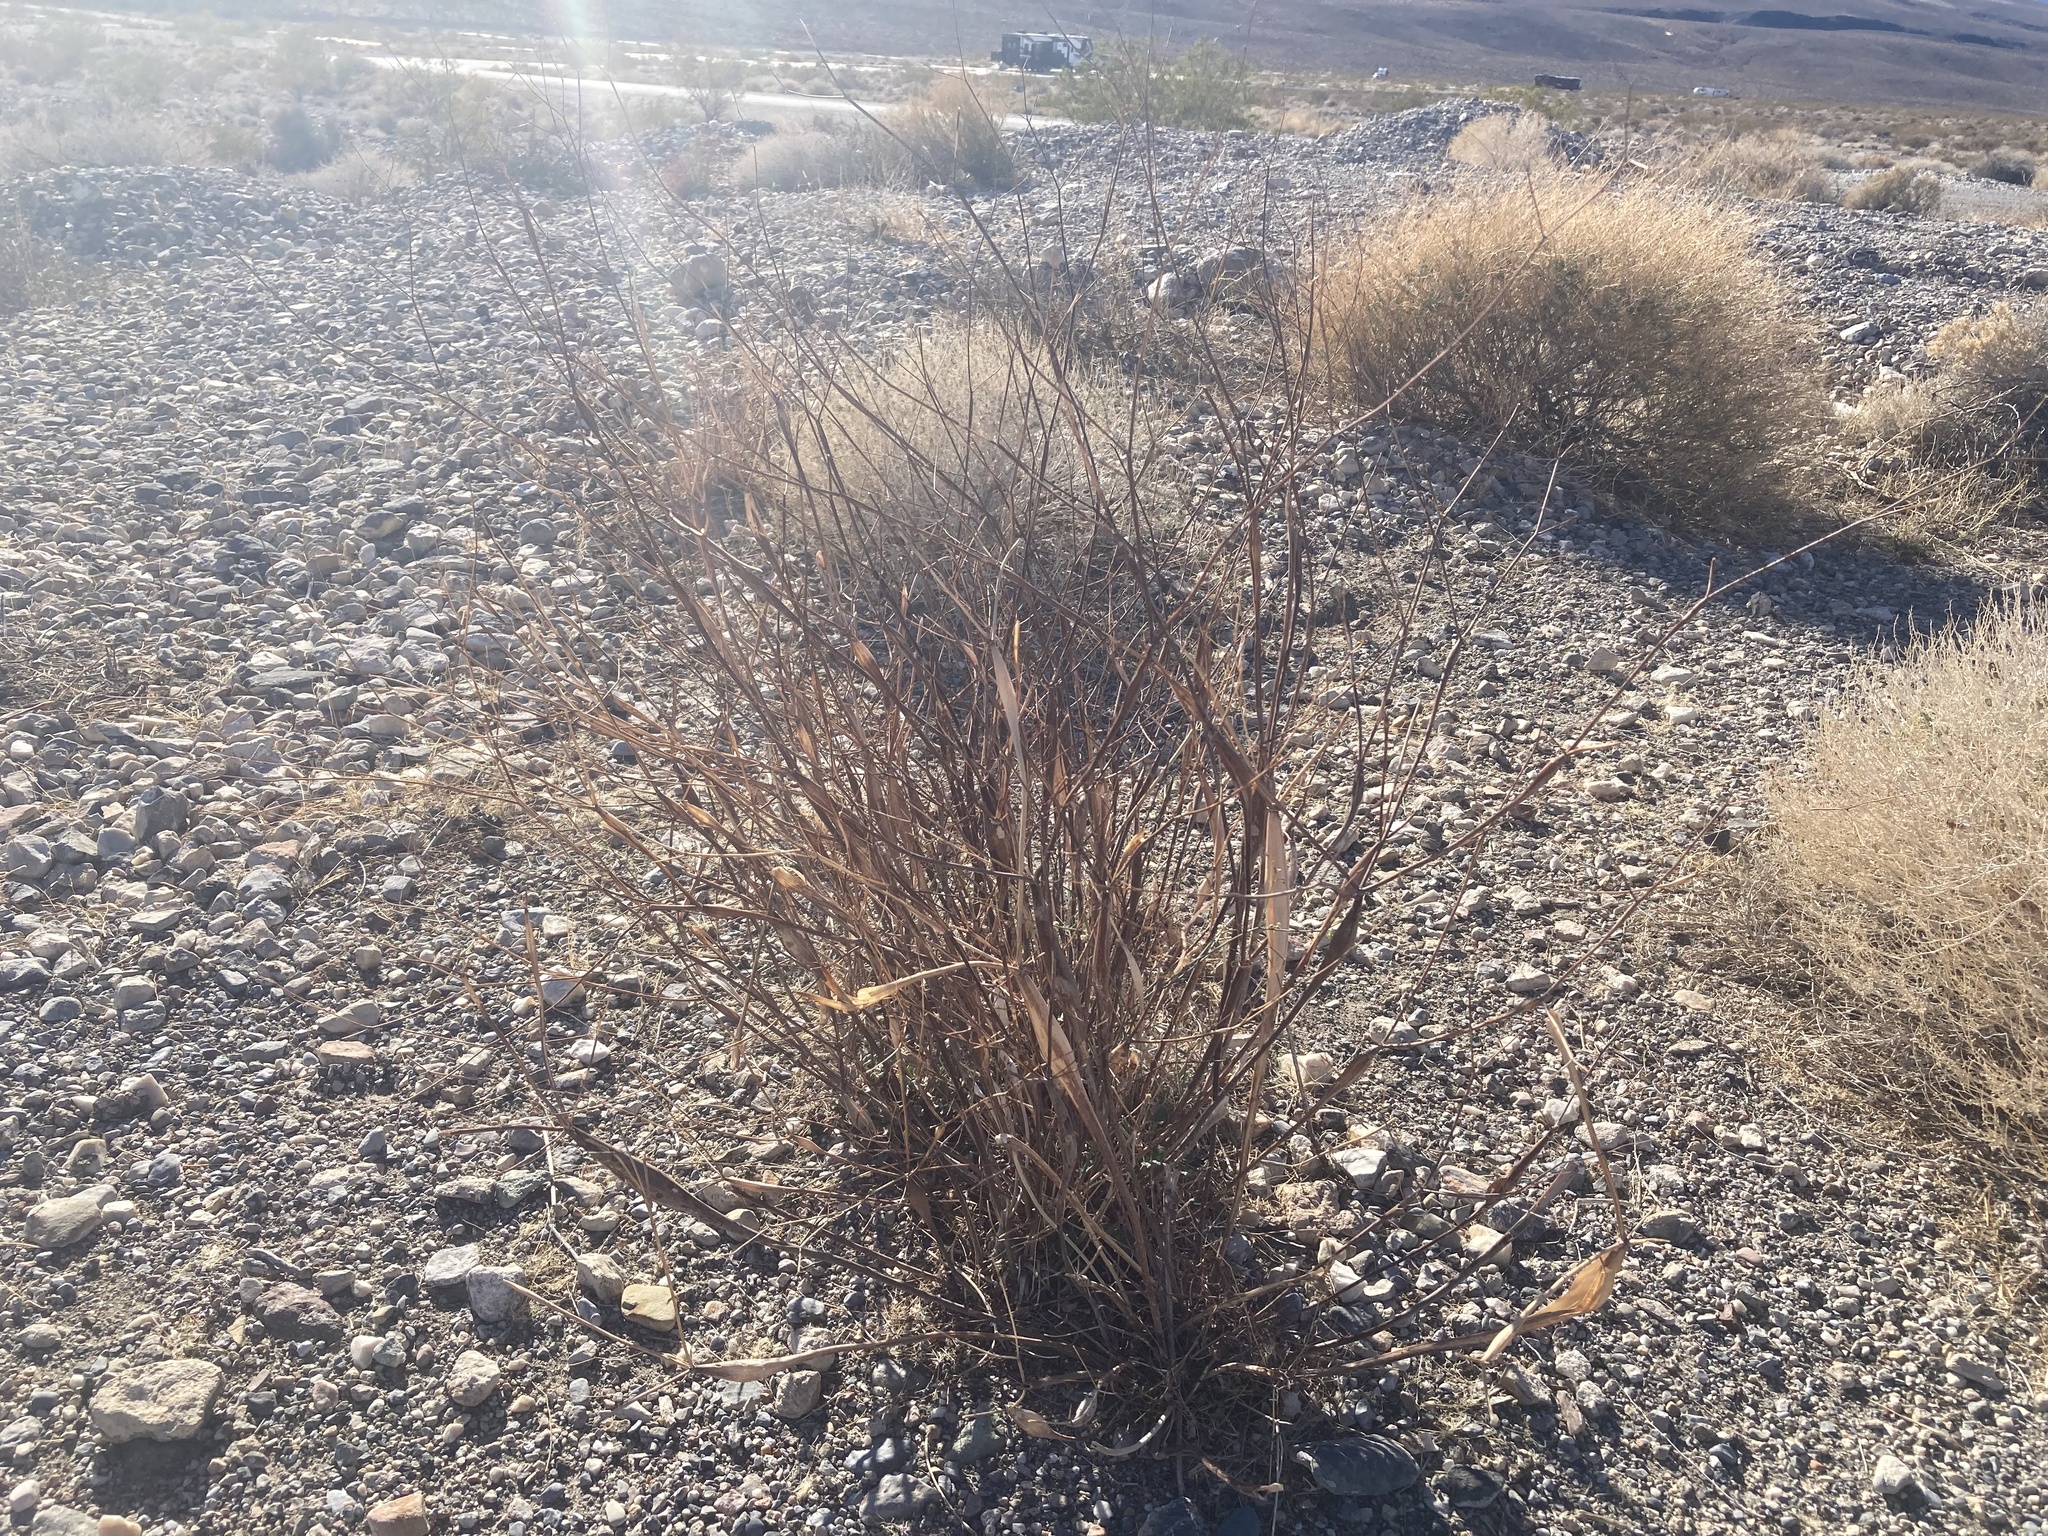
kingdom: Plantae
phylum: Tracheophyta
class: Magnoliopsida
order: Caryophyllales
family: Polygonaceae
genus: Eriogonum
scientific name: Eriogonum inflatum
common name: Desert trumpet
